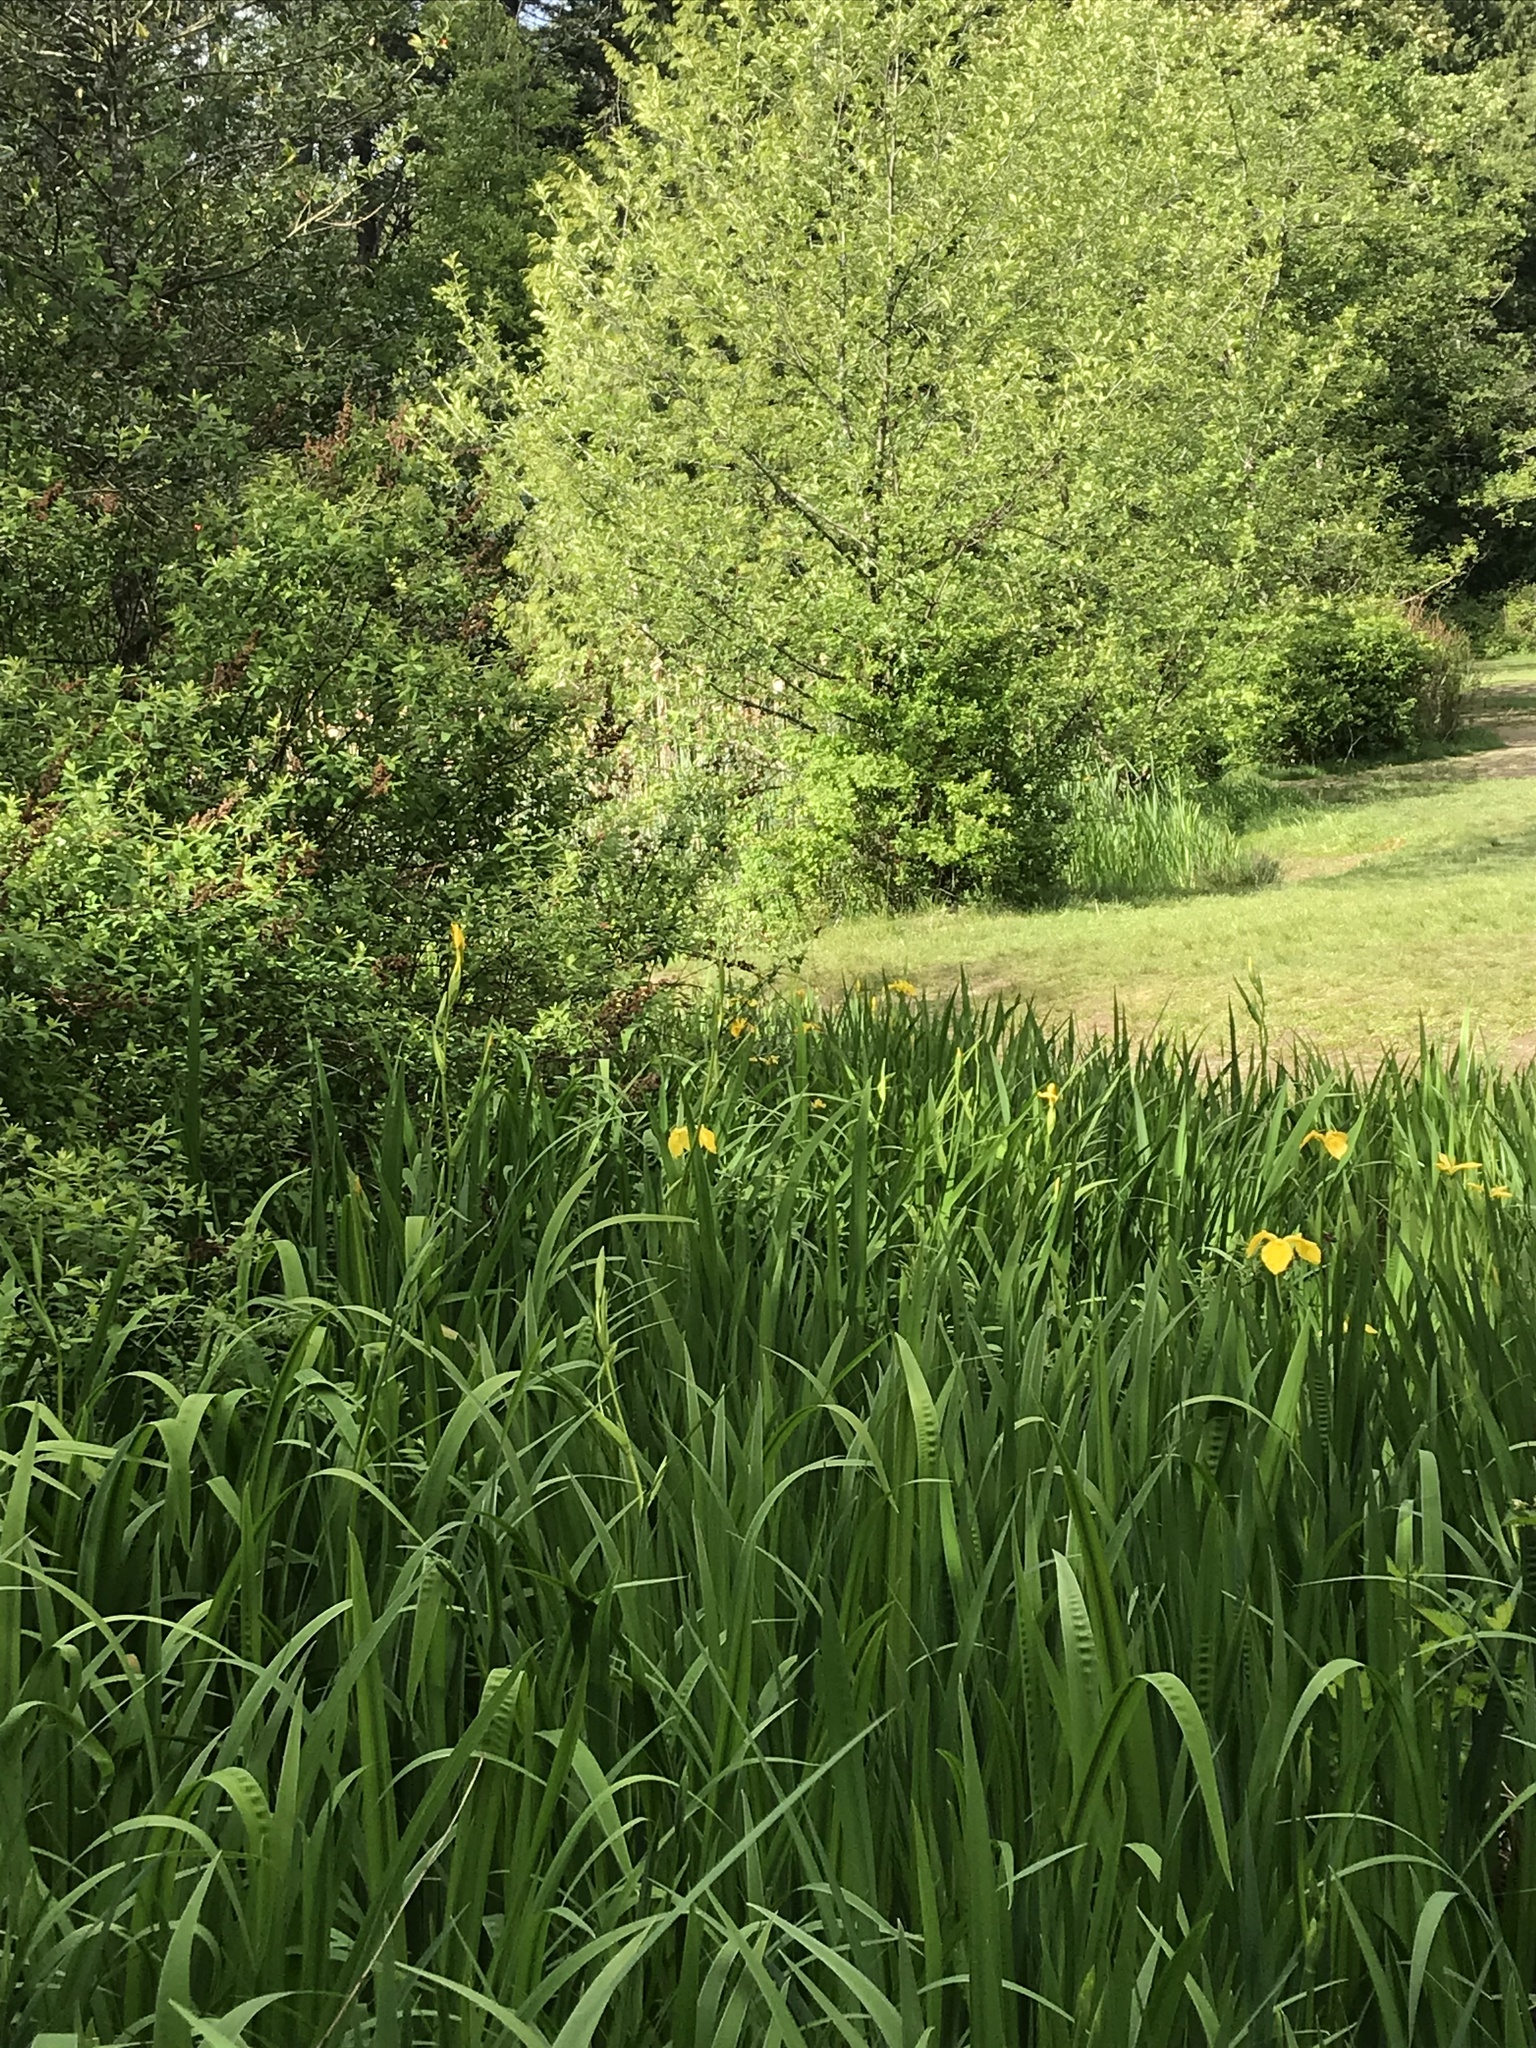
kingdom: Plantae
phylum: Tracheophyta
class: Liliopsida
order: Asparagales
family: Iridaceae
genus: Iris
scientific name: Iris pseudacorus
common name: Yellow flag
